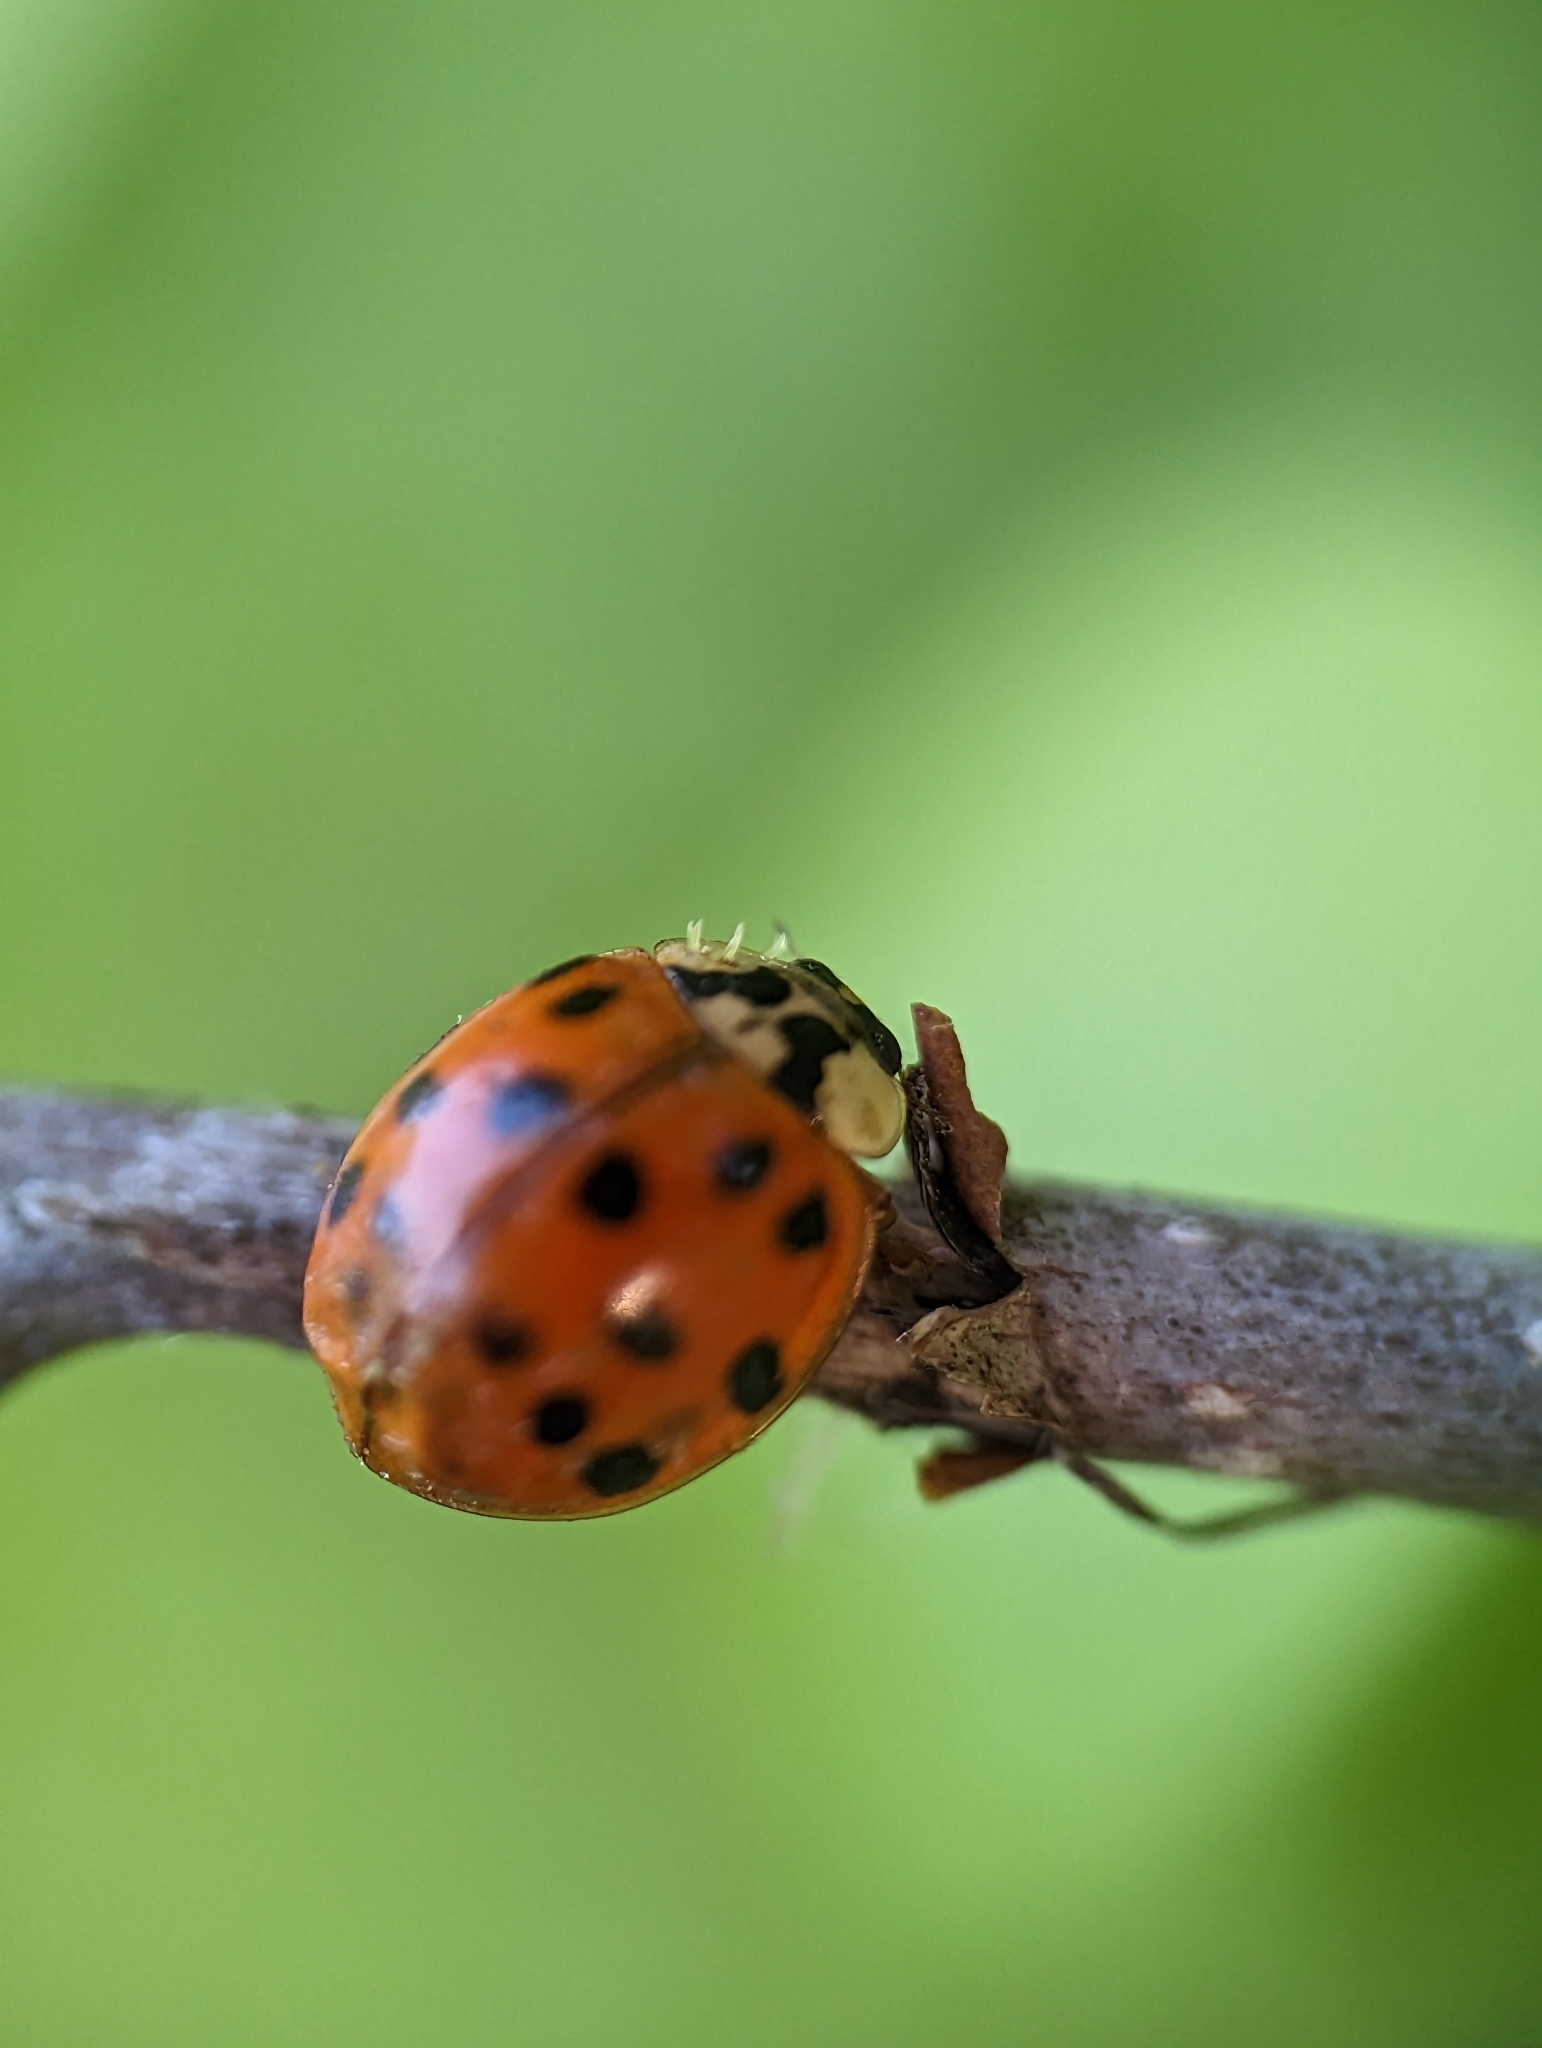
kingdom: Fungi
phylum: Ascomycota
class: Laboulbeniomycetes
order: Laboulbeniales
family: Laboulbeniaceae
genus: Hesperomyces
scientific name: Hesperomyces harmoniae
